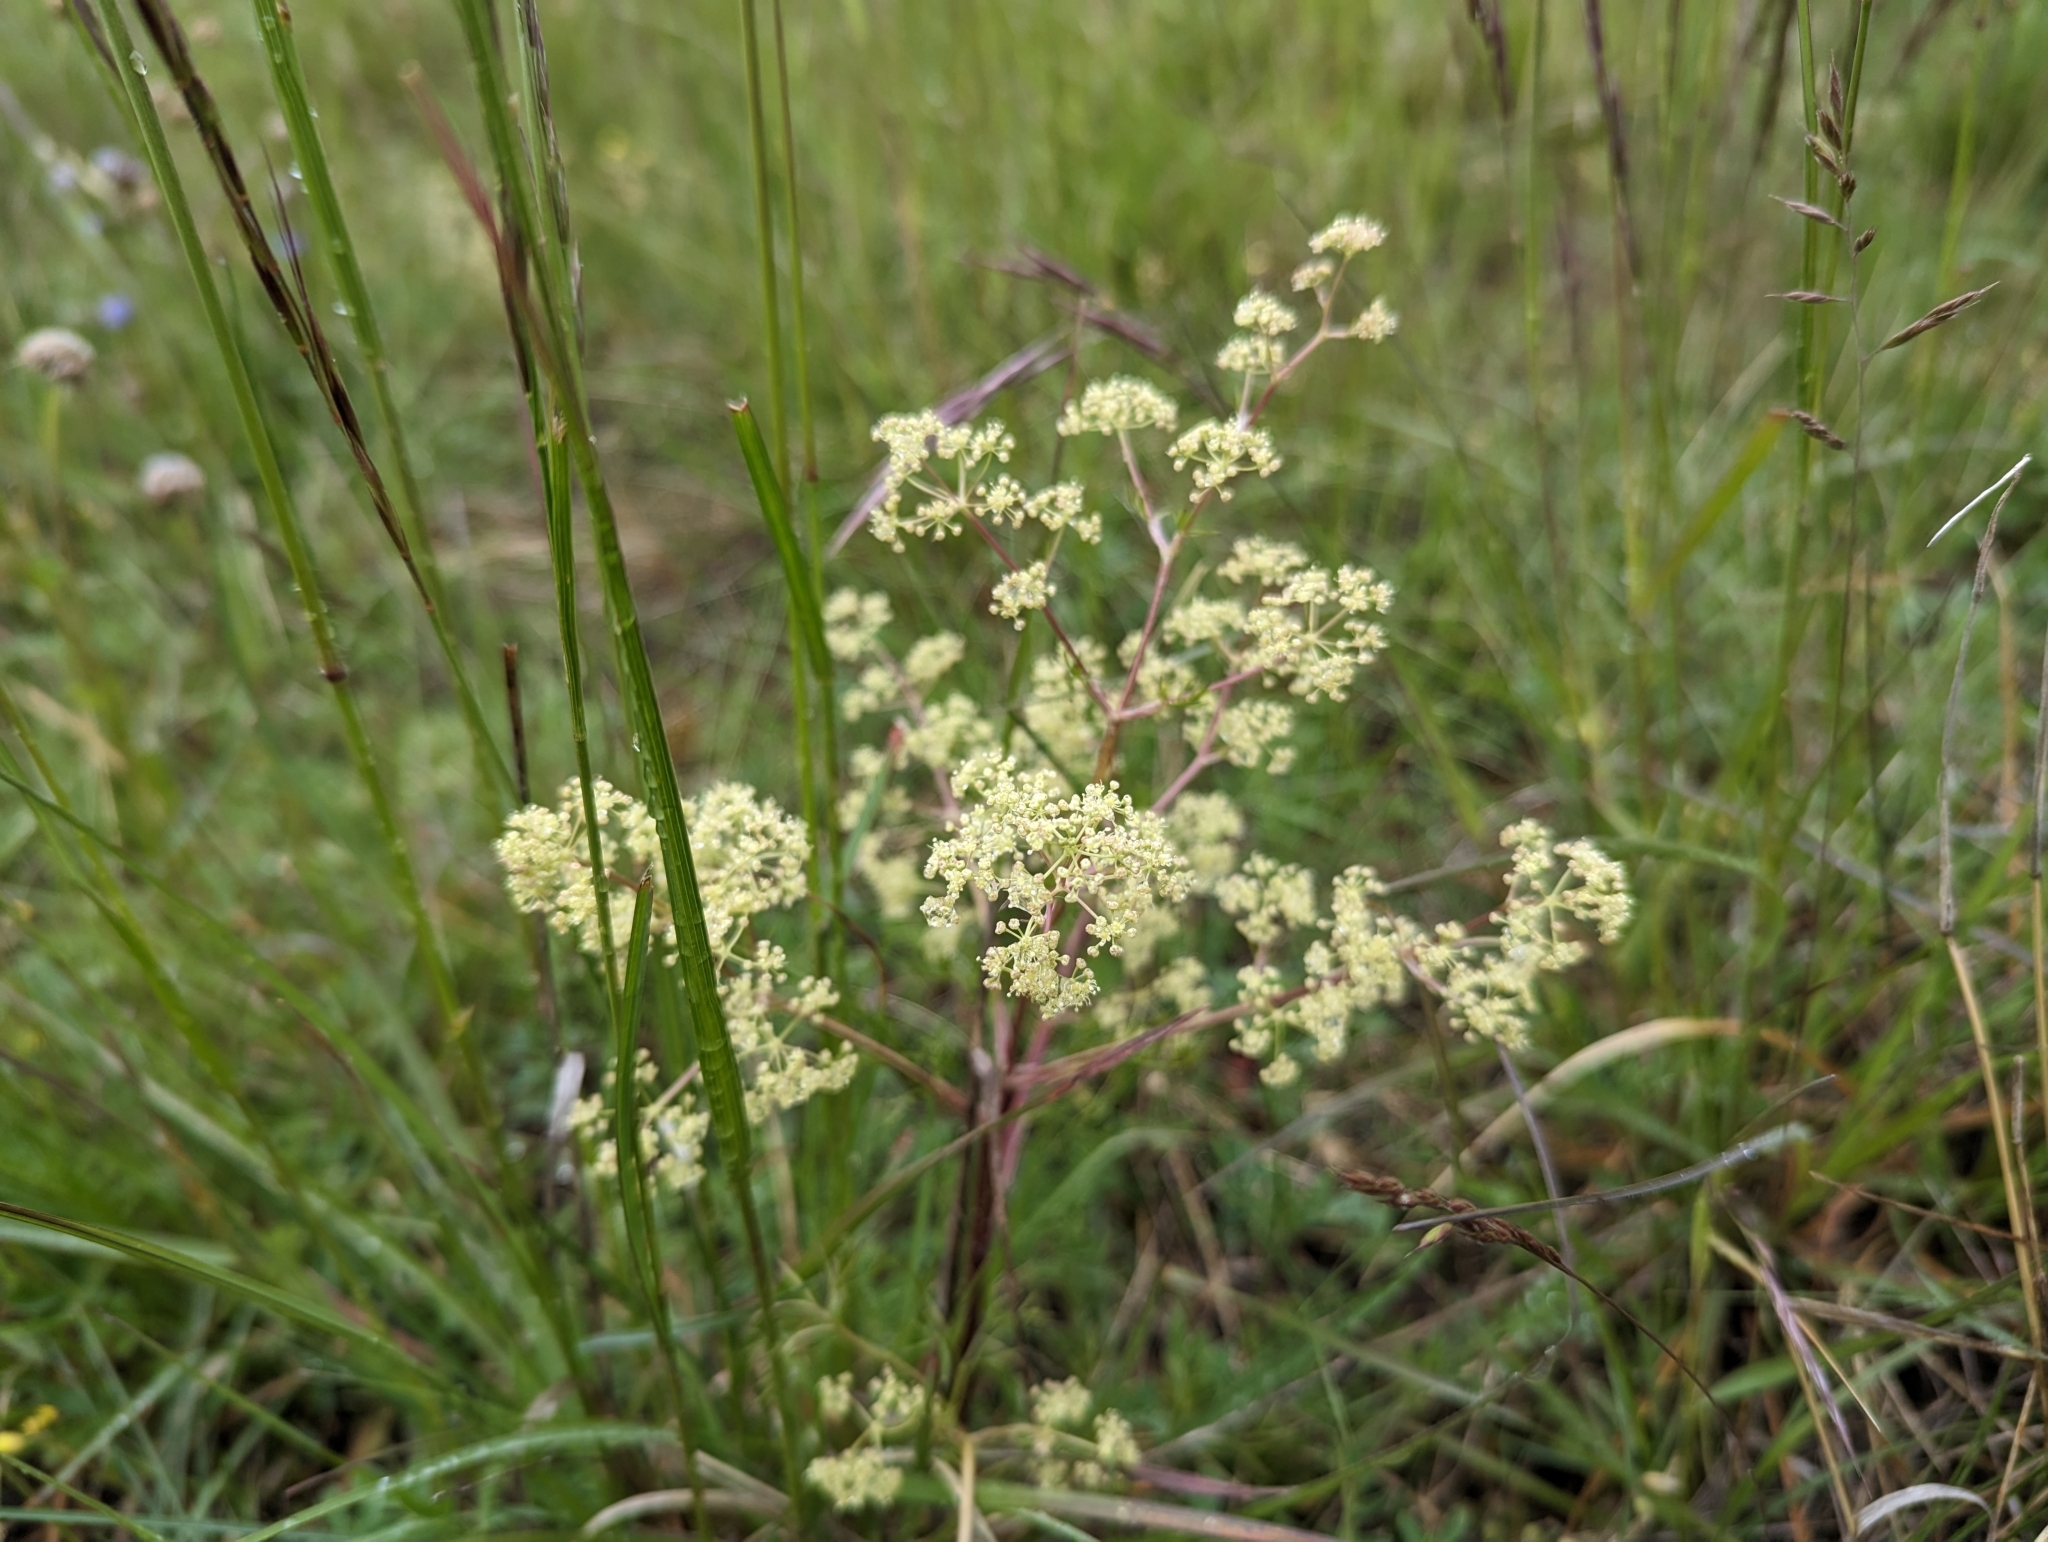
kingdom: Plantae
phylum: Tracheophyta
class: Magnoliopsida
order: Apiales
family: Apiaceae
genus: Trinia
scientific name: Trinia glauca
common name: Honewort
